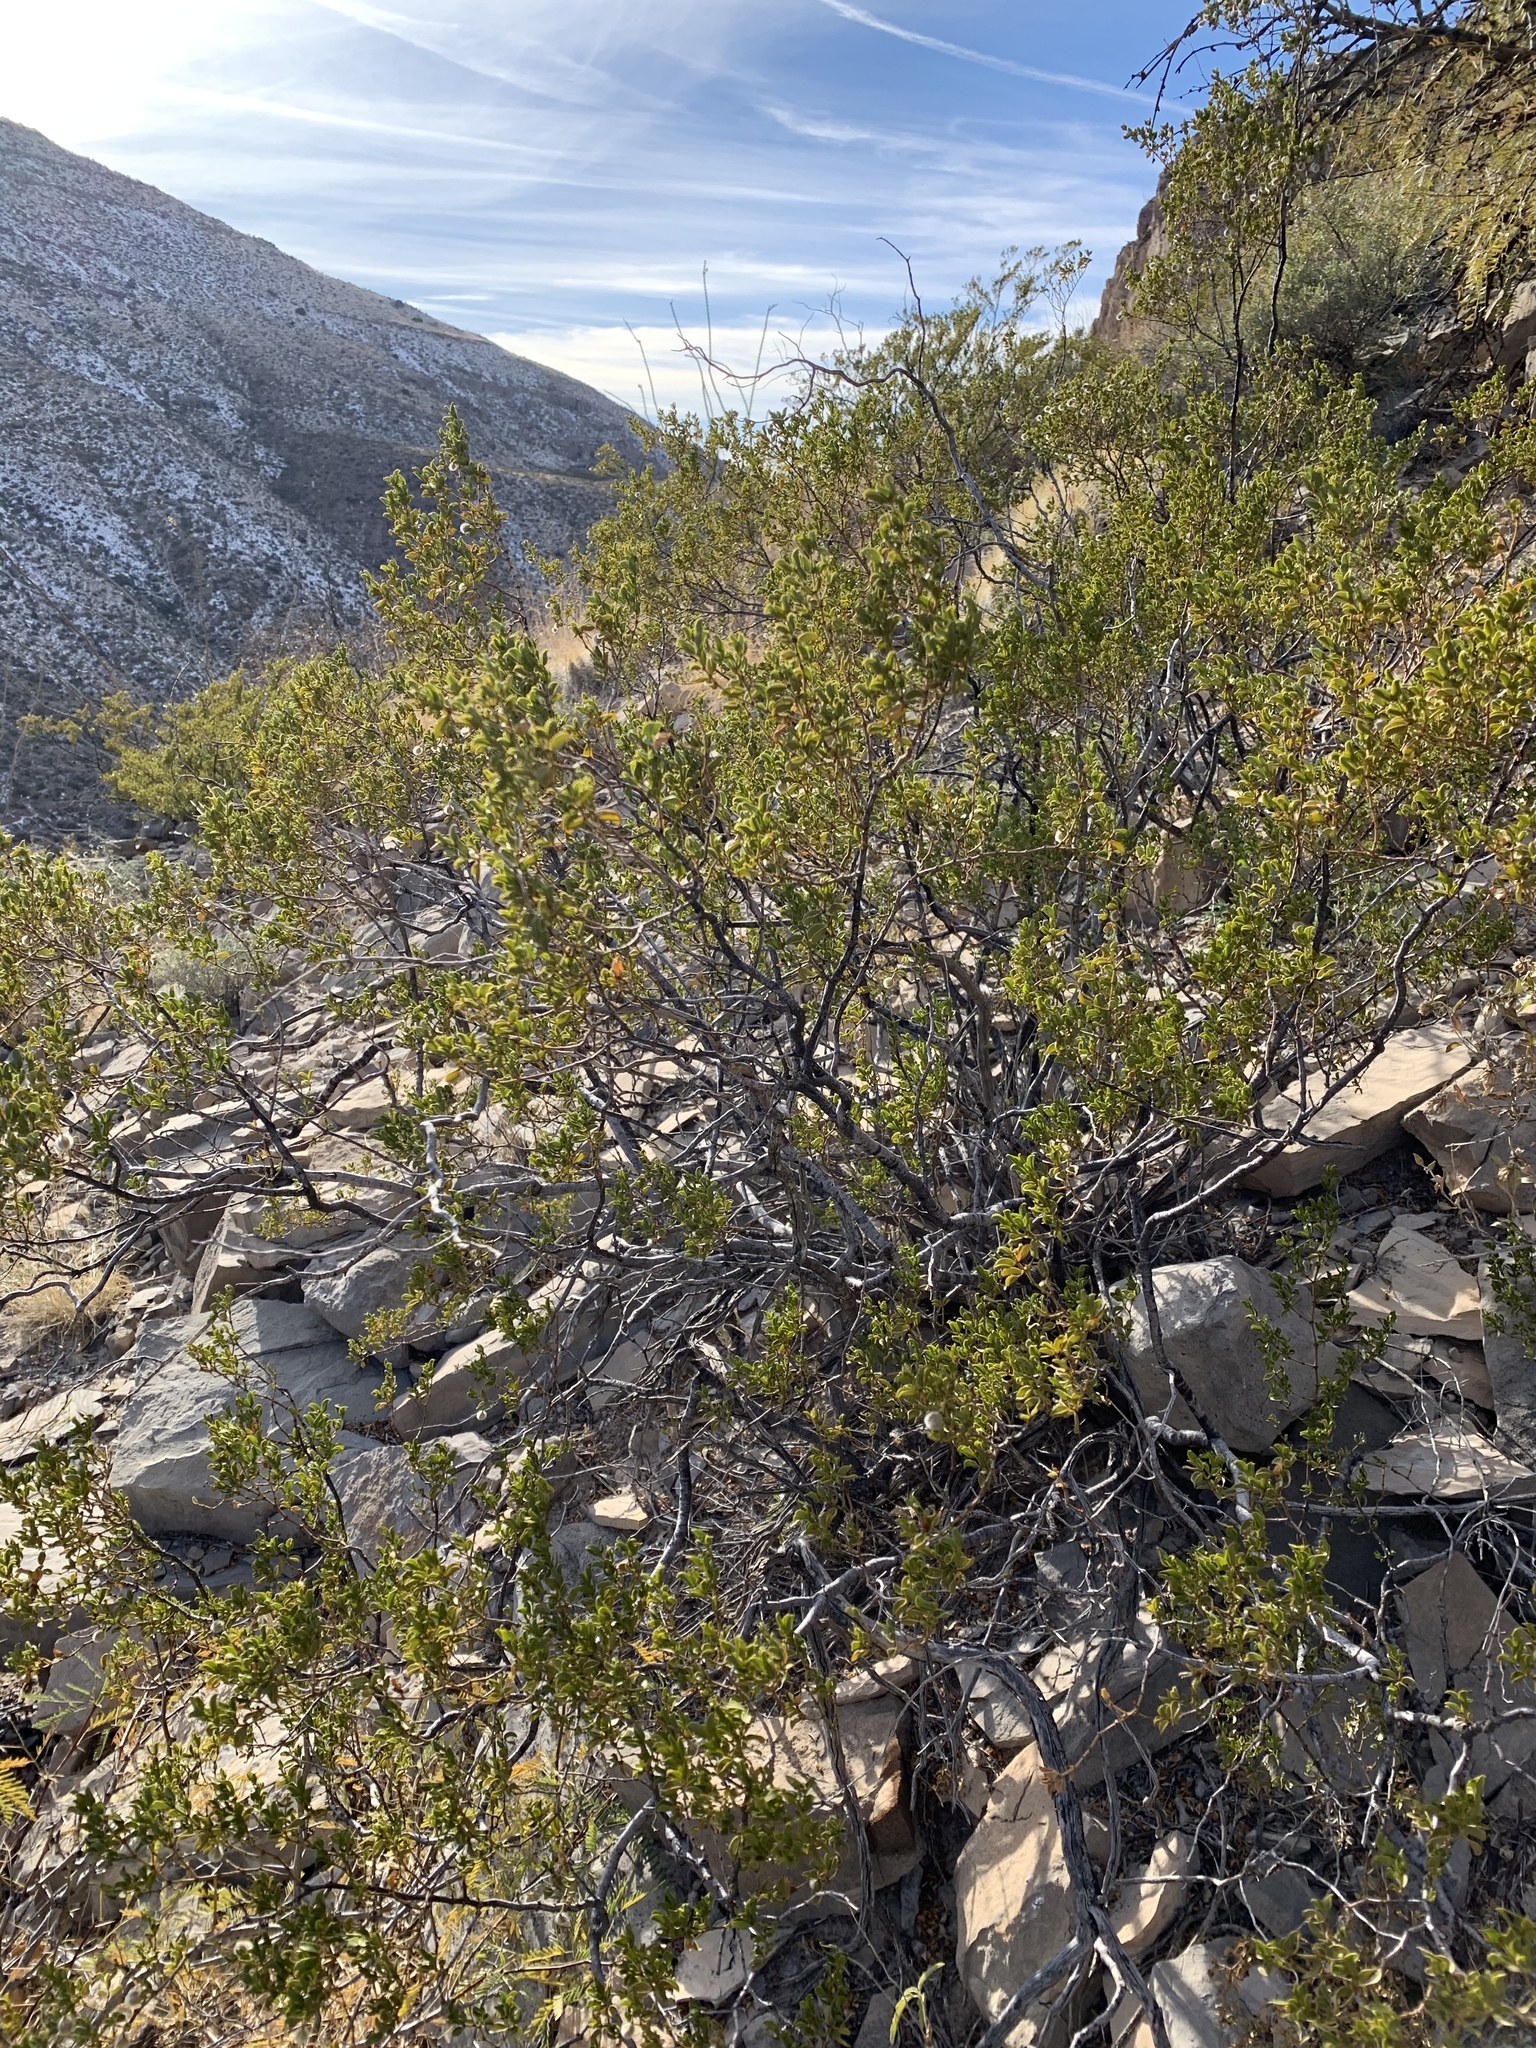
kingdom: Plantae
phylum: Tracheophyta
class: Magnoliopsida
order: Zygophyllales
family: Zygophyllaceae
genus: Larrea
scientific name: Larrea tridentata
